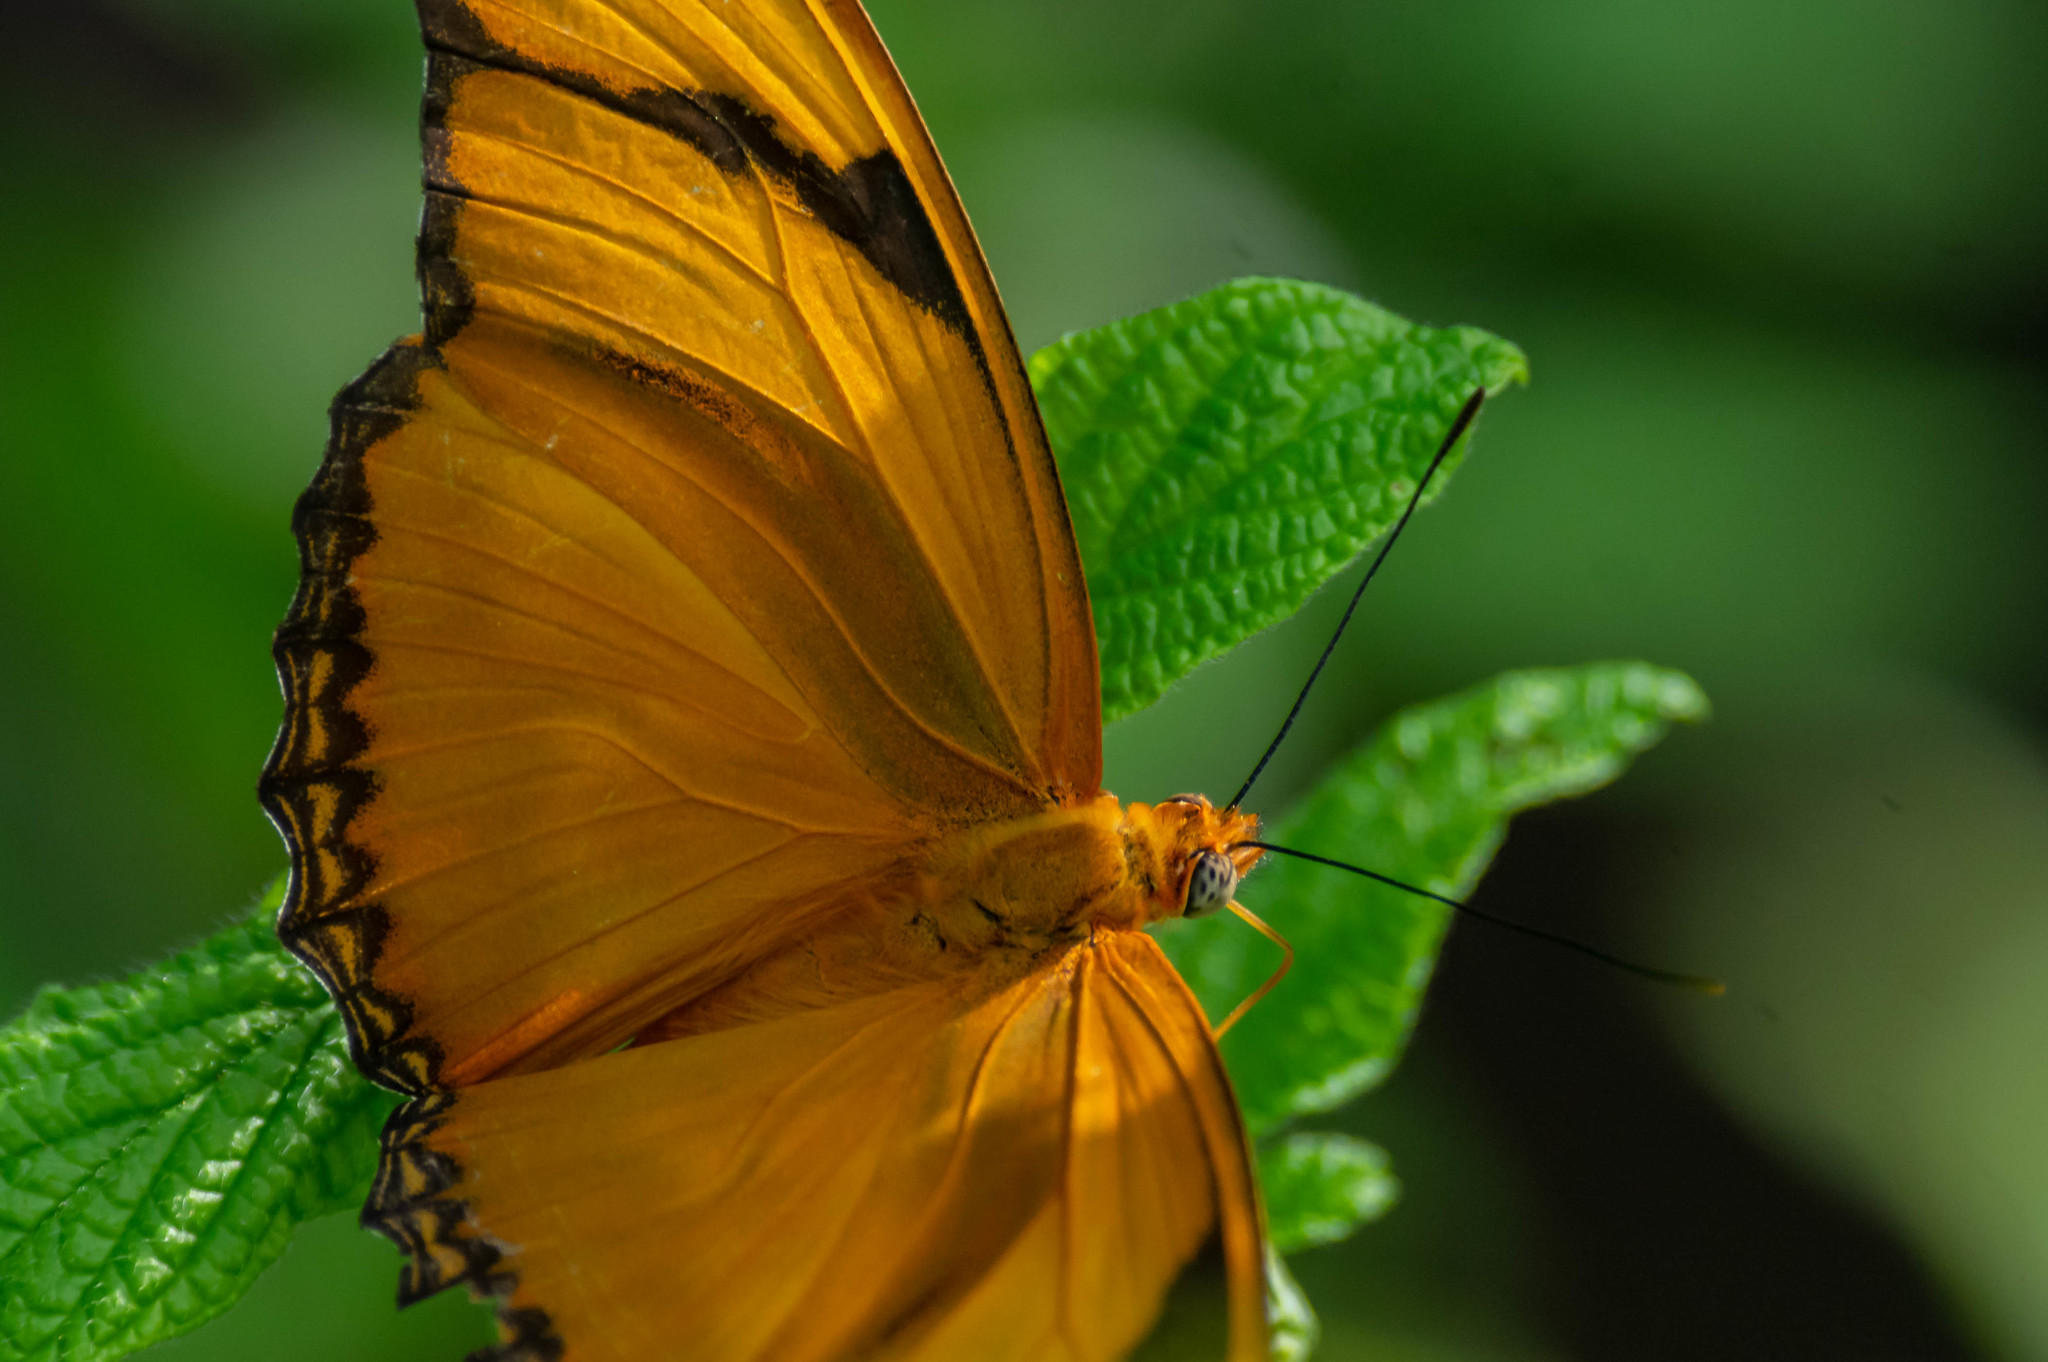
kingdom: Animalia
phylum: Arthropoda
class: Insecta
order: Lepidoptera
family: Nymphalidae
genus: Dryas
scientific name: Dryas iulia
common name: Flambeau
